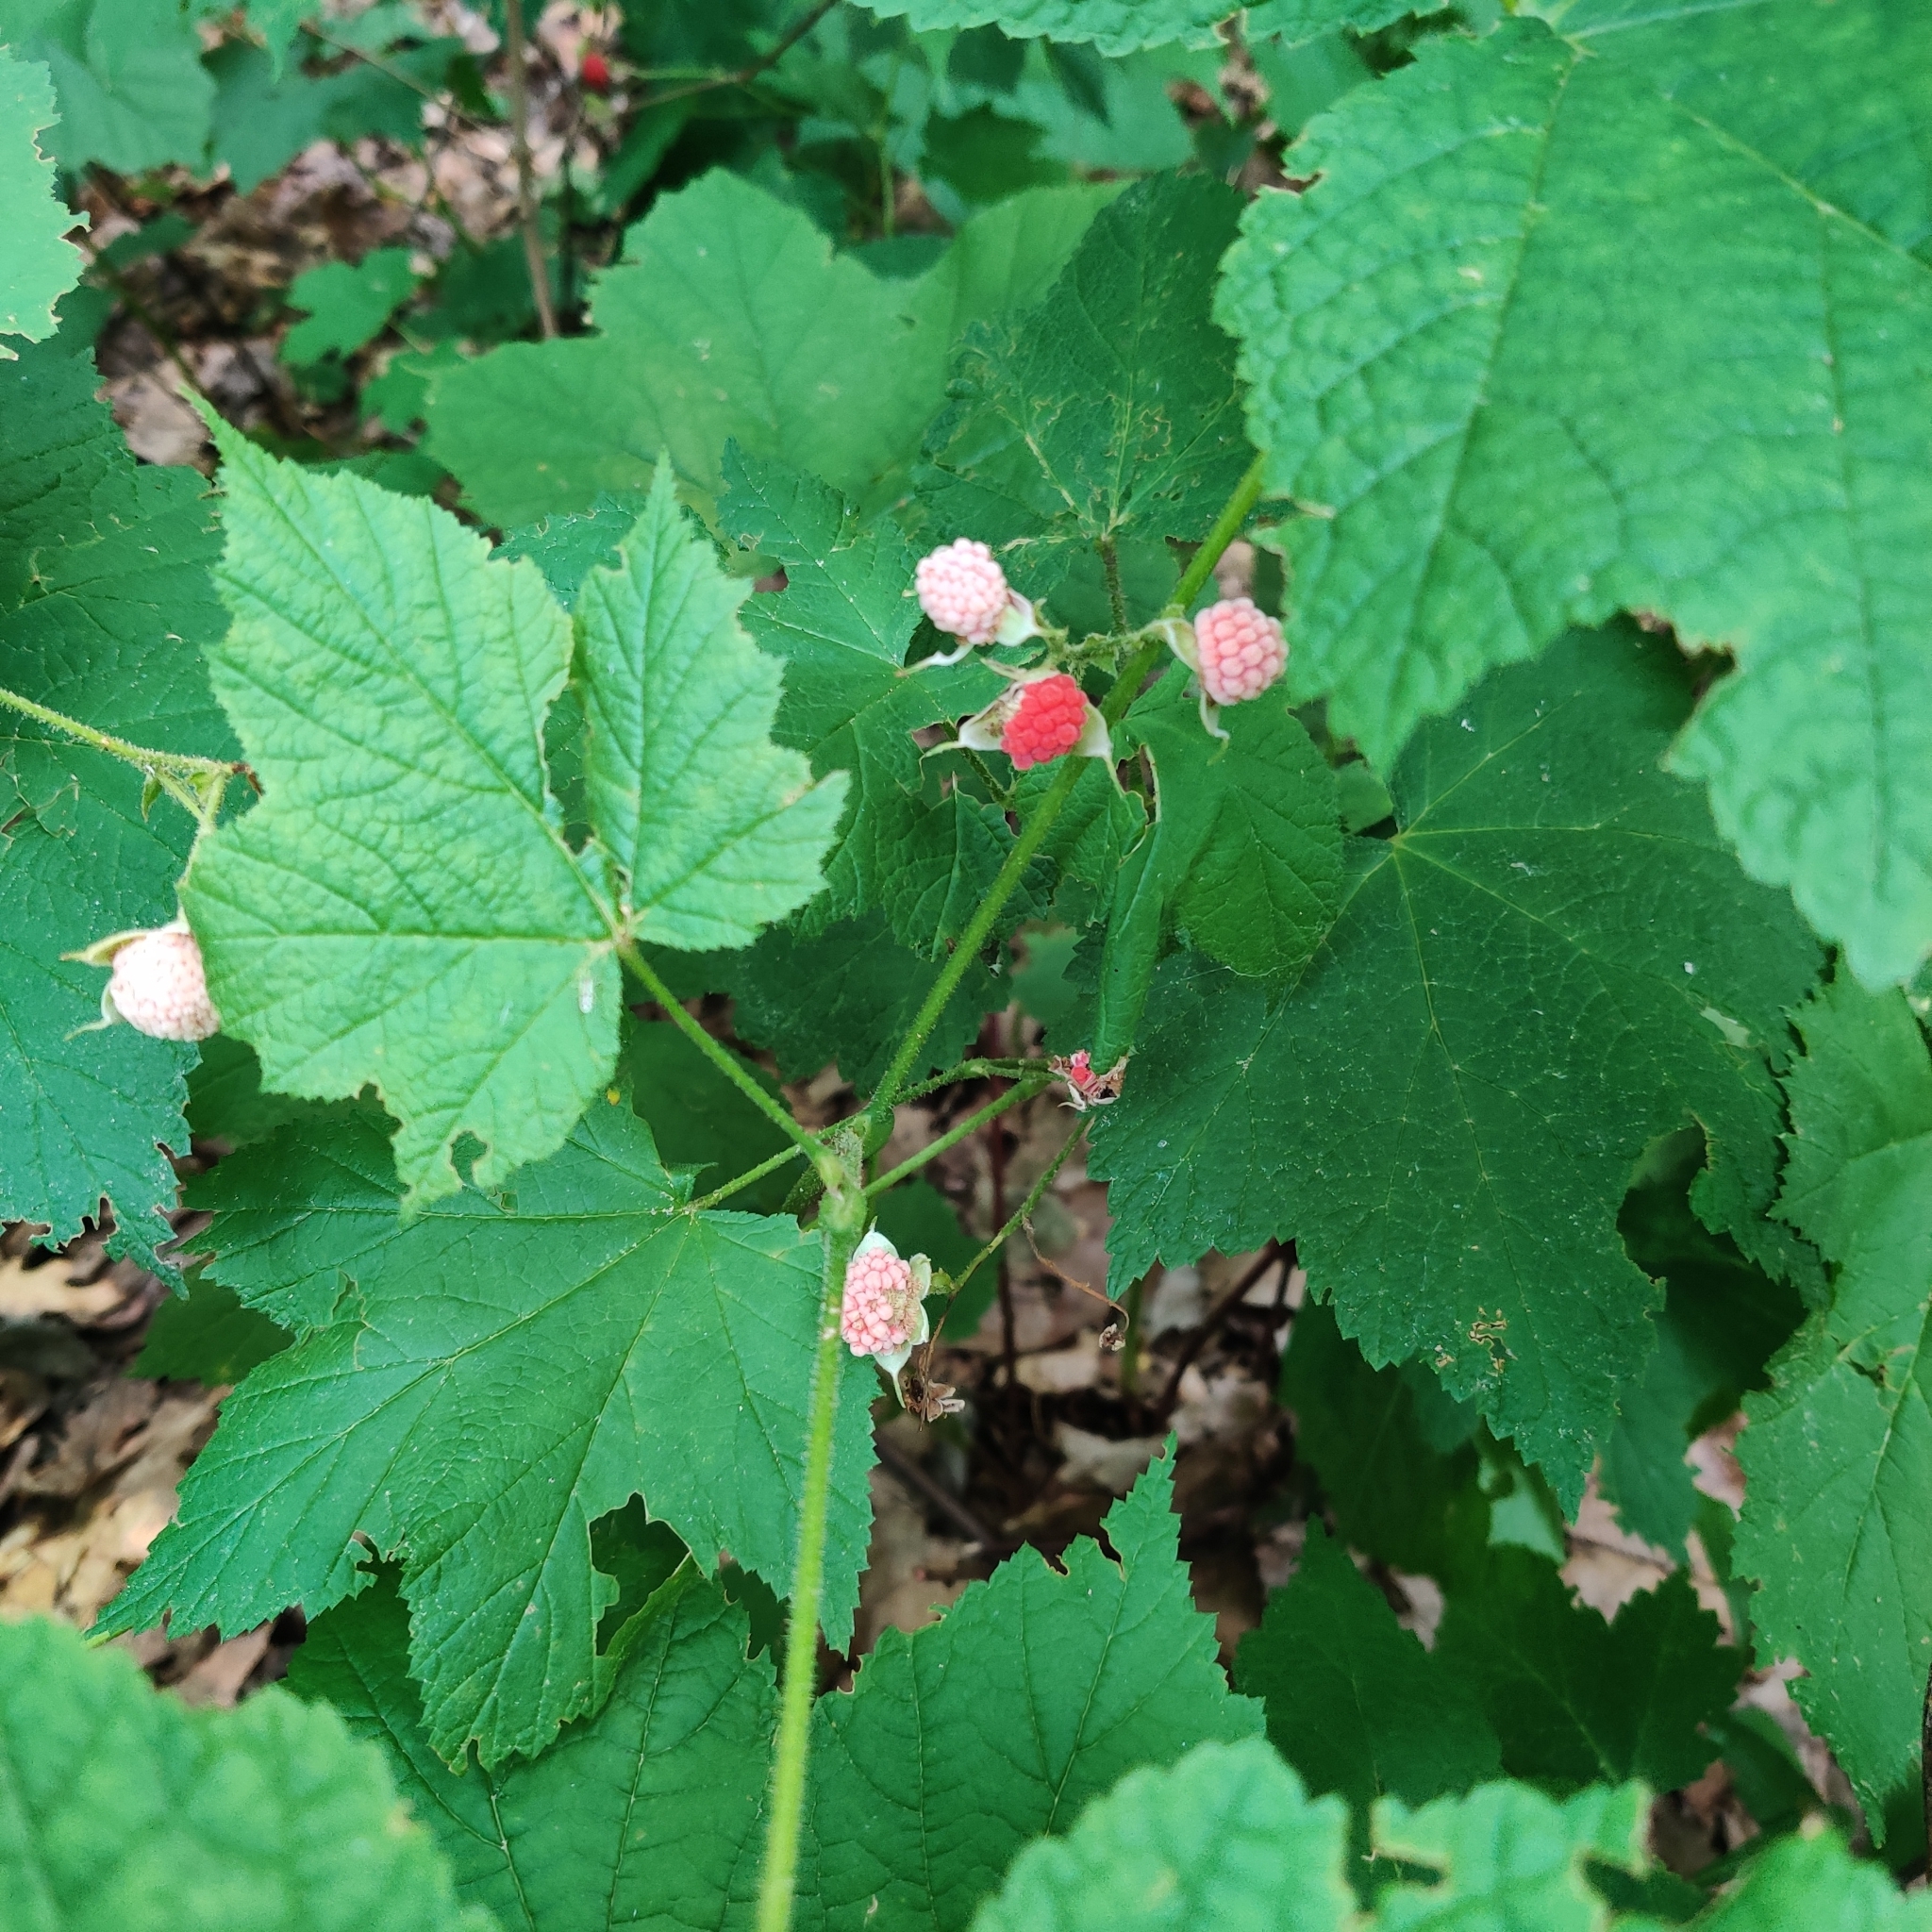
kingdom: Plantae
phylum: Tracheophyta
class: Magnoliopsida
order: Rosales
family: Rosaceae
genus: Rubus
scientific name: Rubus parviflorus
